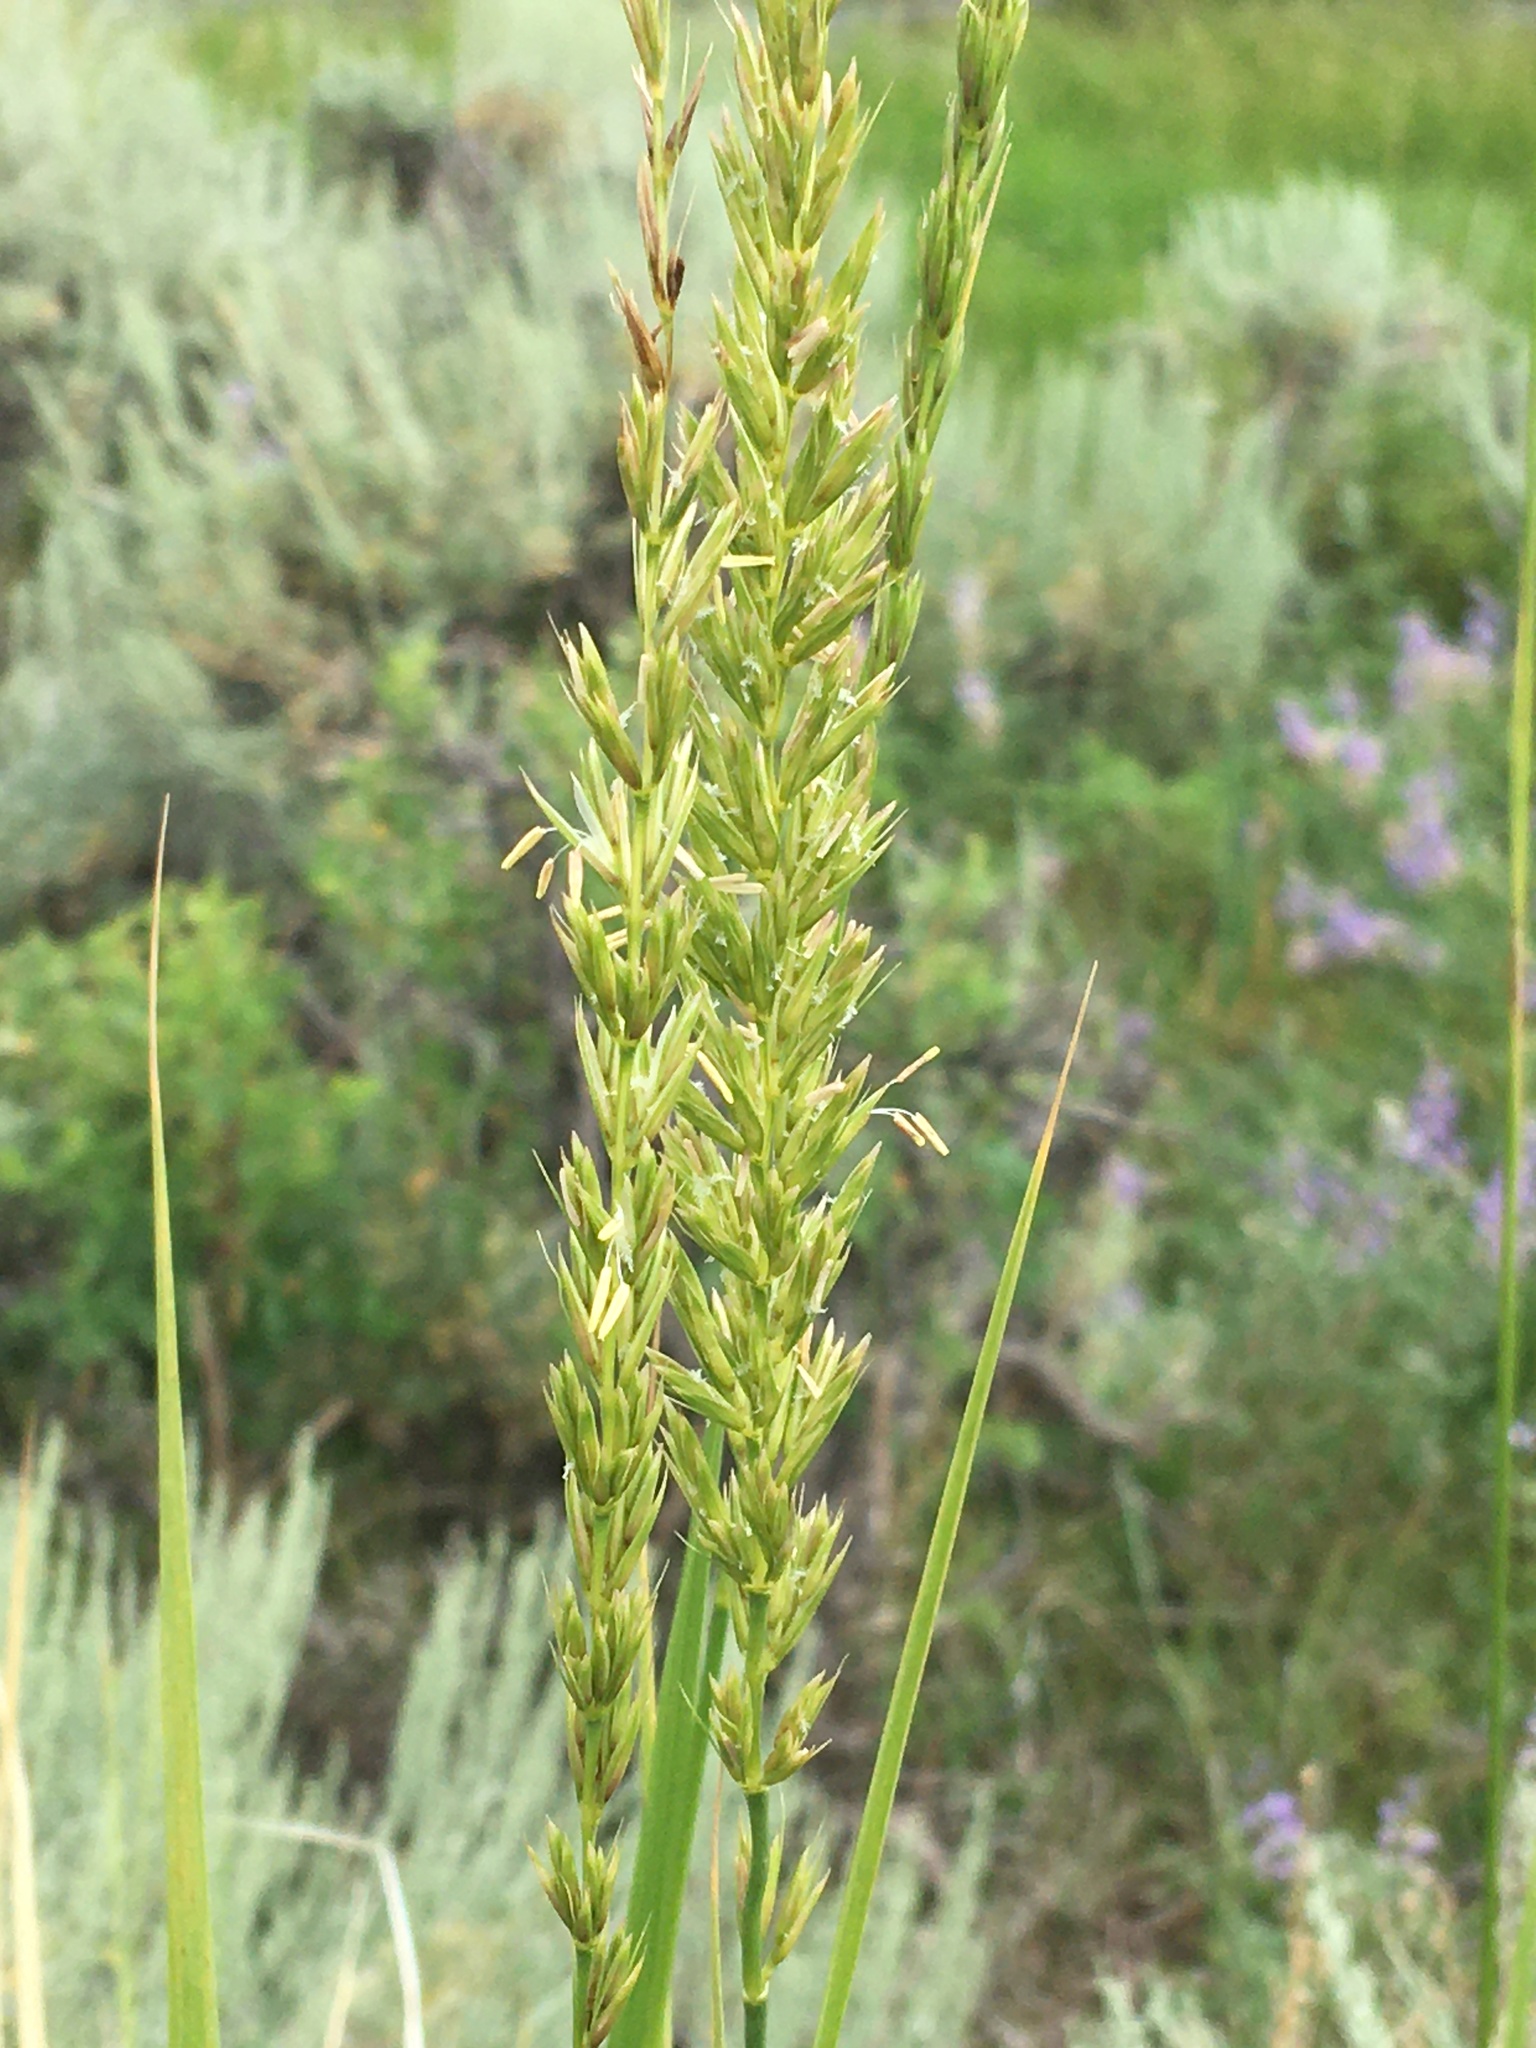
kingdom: Plantae
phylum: Tracheophyta
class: Liliopsida
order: Poales
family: Poaceae
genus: Leymus
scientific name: Leymus cinereus
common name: Basin wild rye
